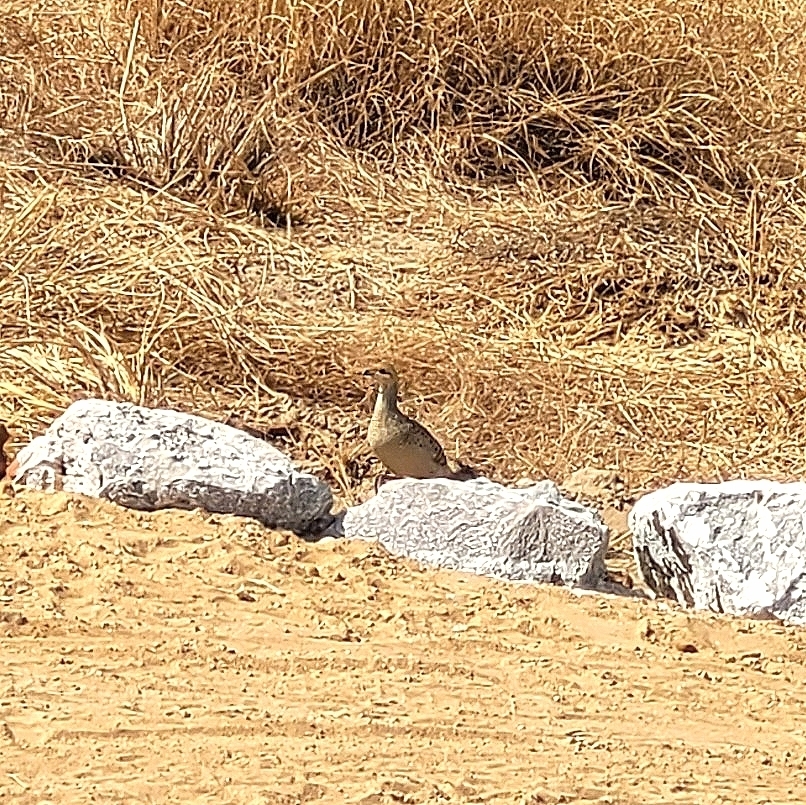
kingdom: Animalia
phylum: Chordata
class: Aves
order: Galliformes
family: Phasianidae
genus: Ortygornis
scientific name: Ortygornis pondicerianus
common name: Grey francolin
